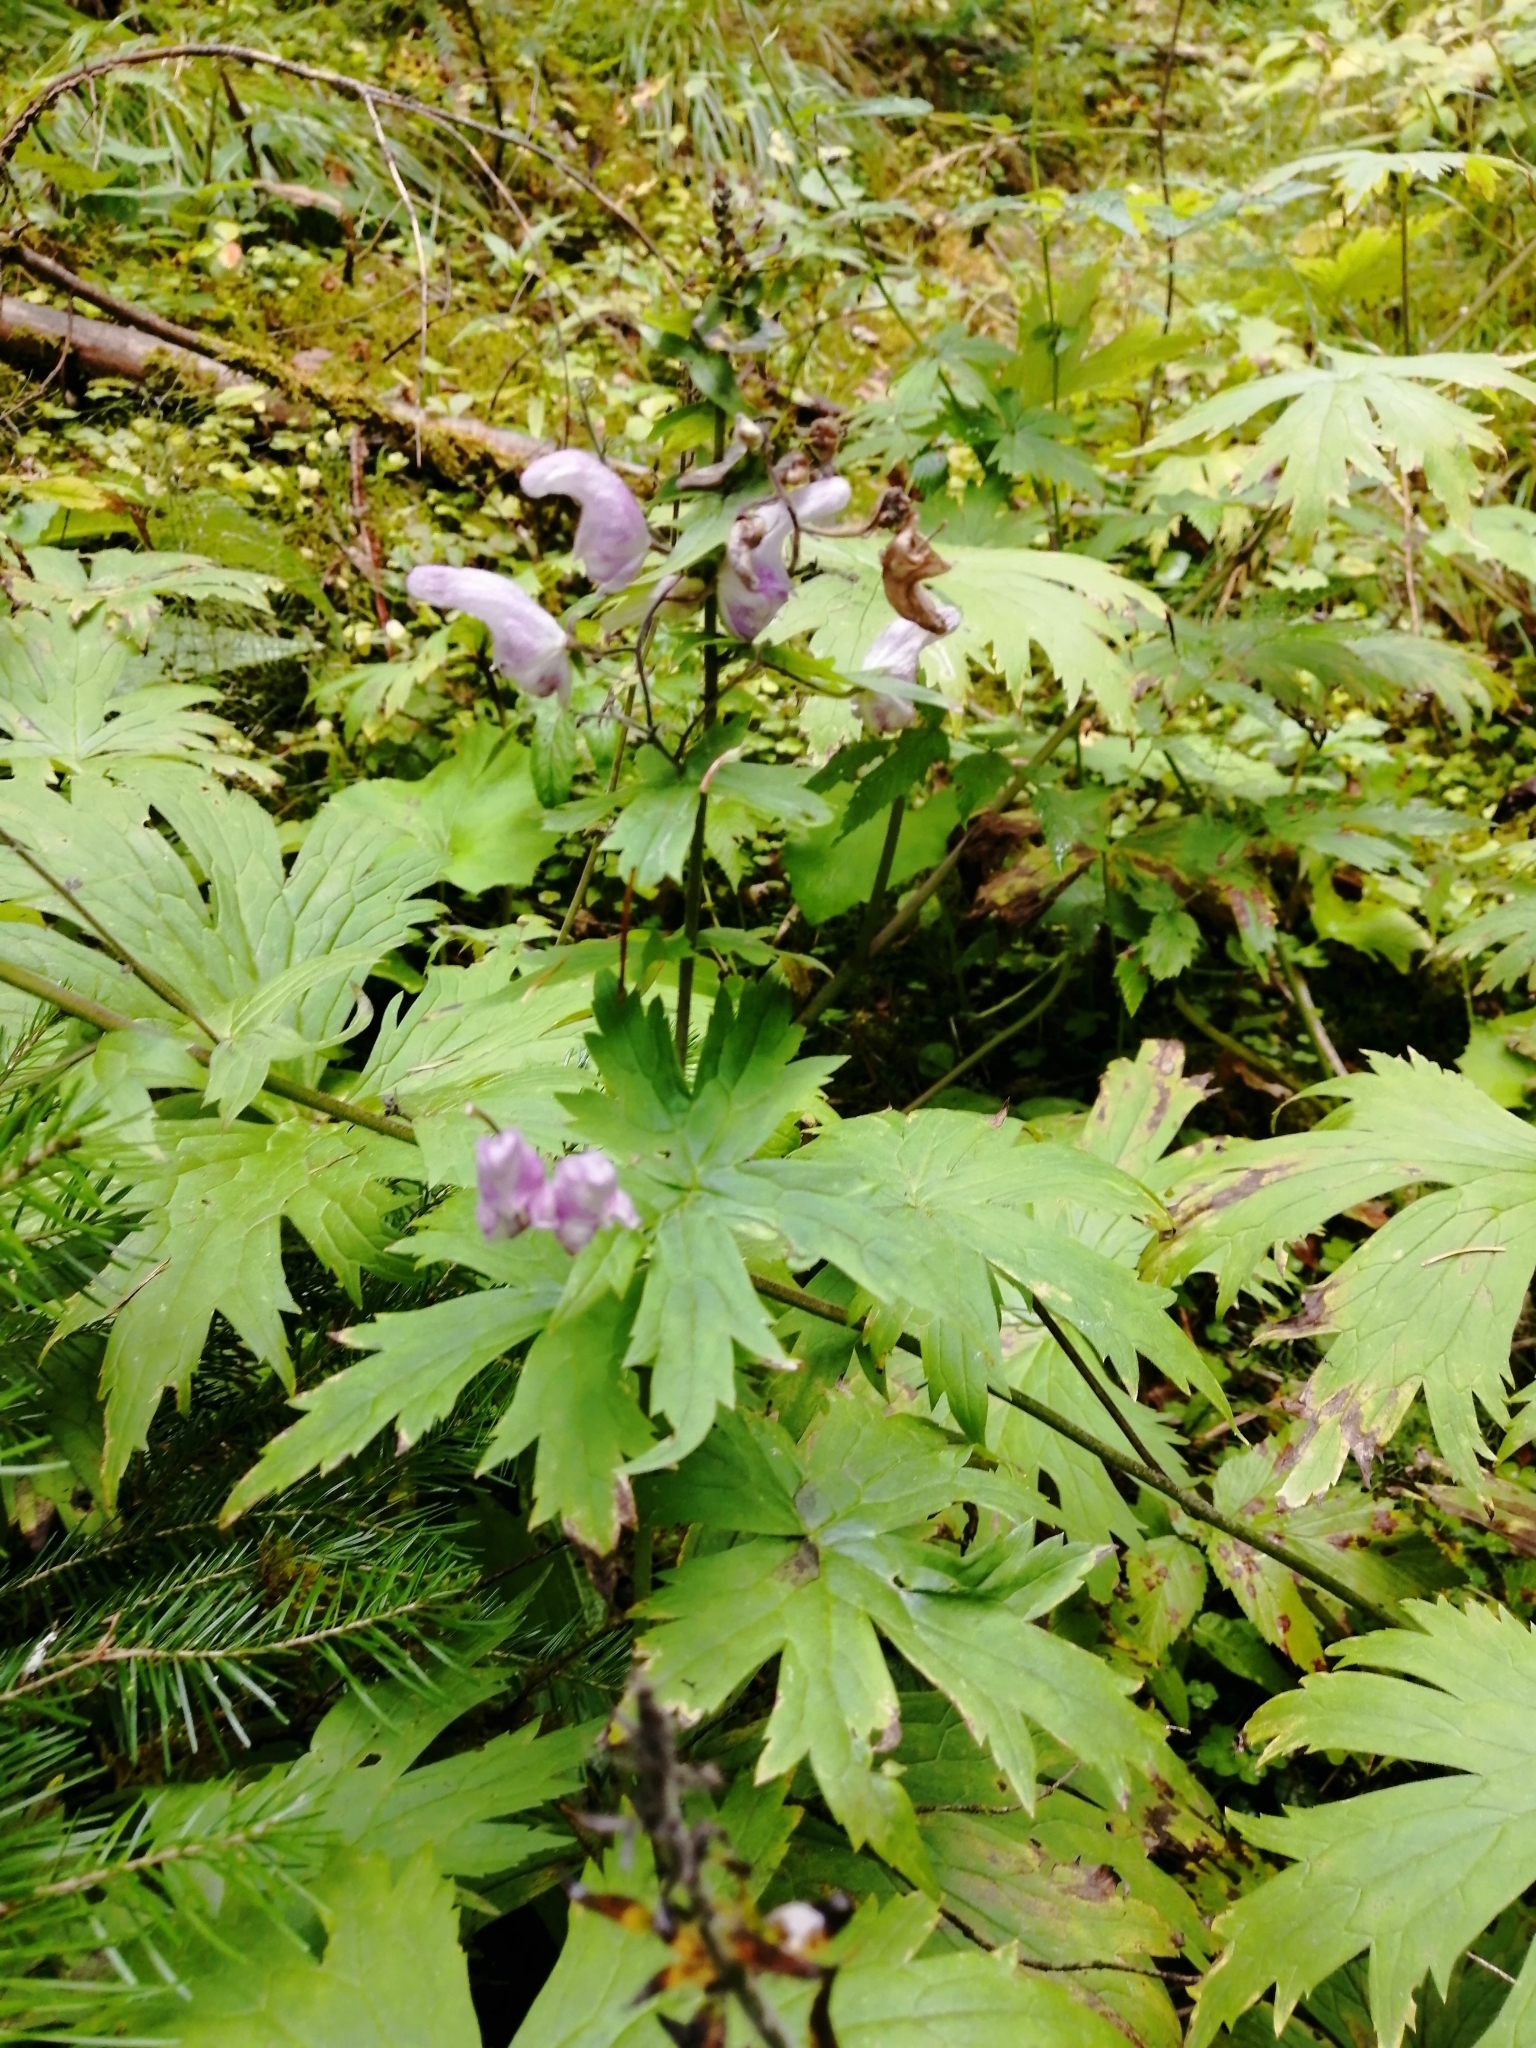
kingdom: Plantae
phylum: Tracheophyta
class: Magnoliopsida
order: Ranunculales
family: Ranunculaceae
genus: Aconitum
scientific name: Aconitum septentrionale
